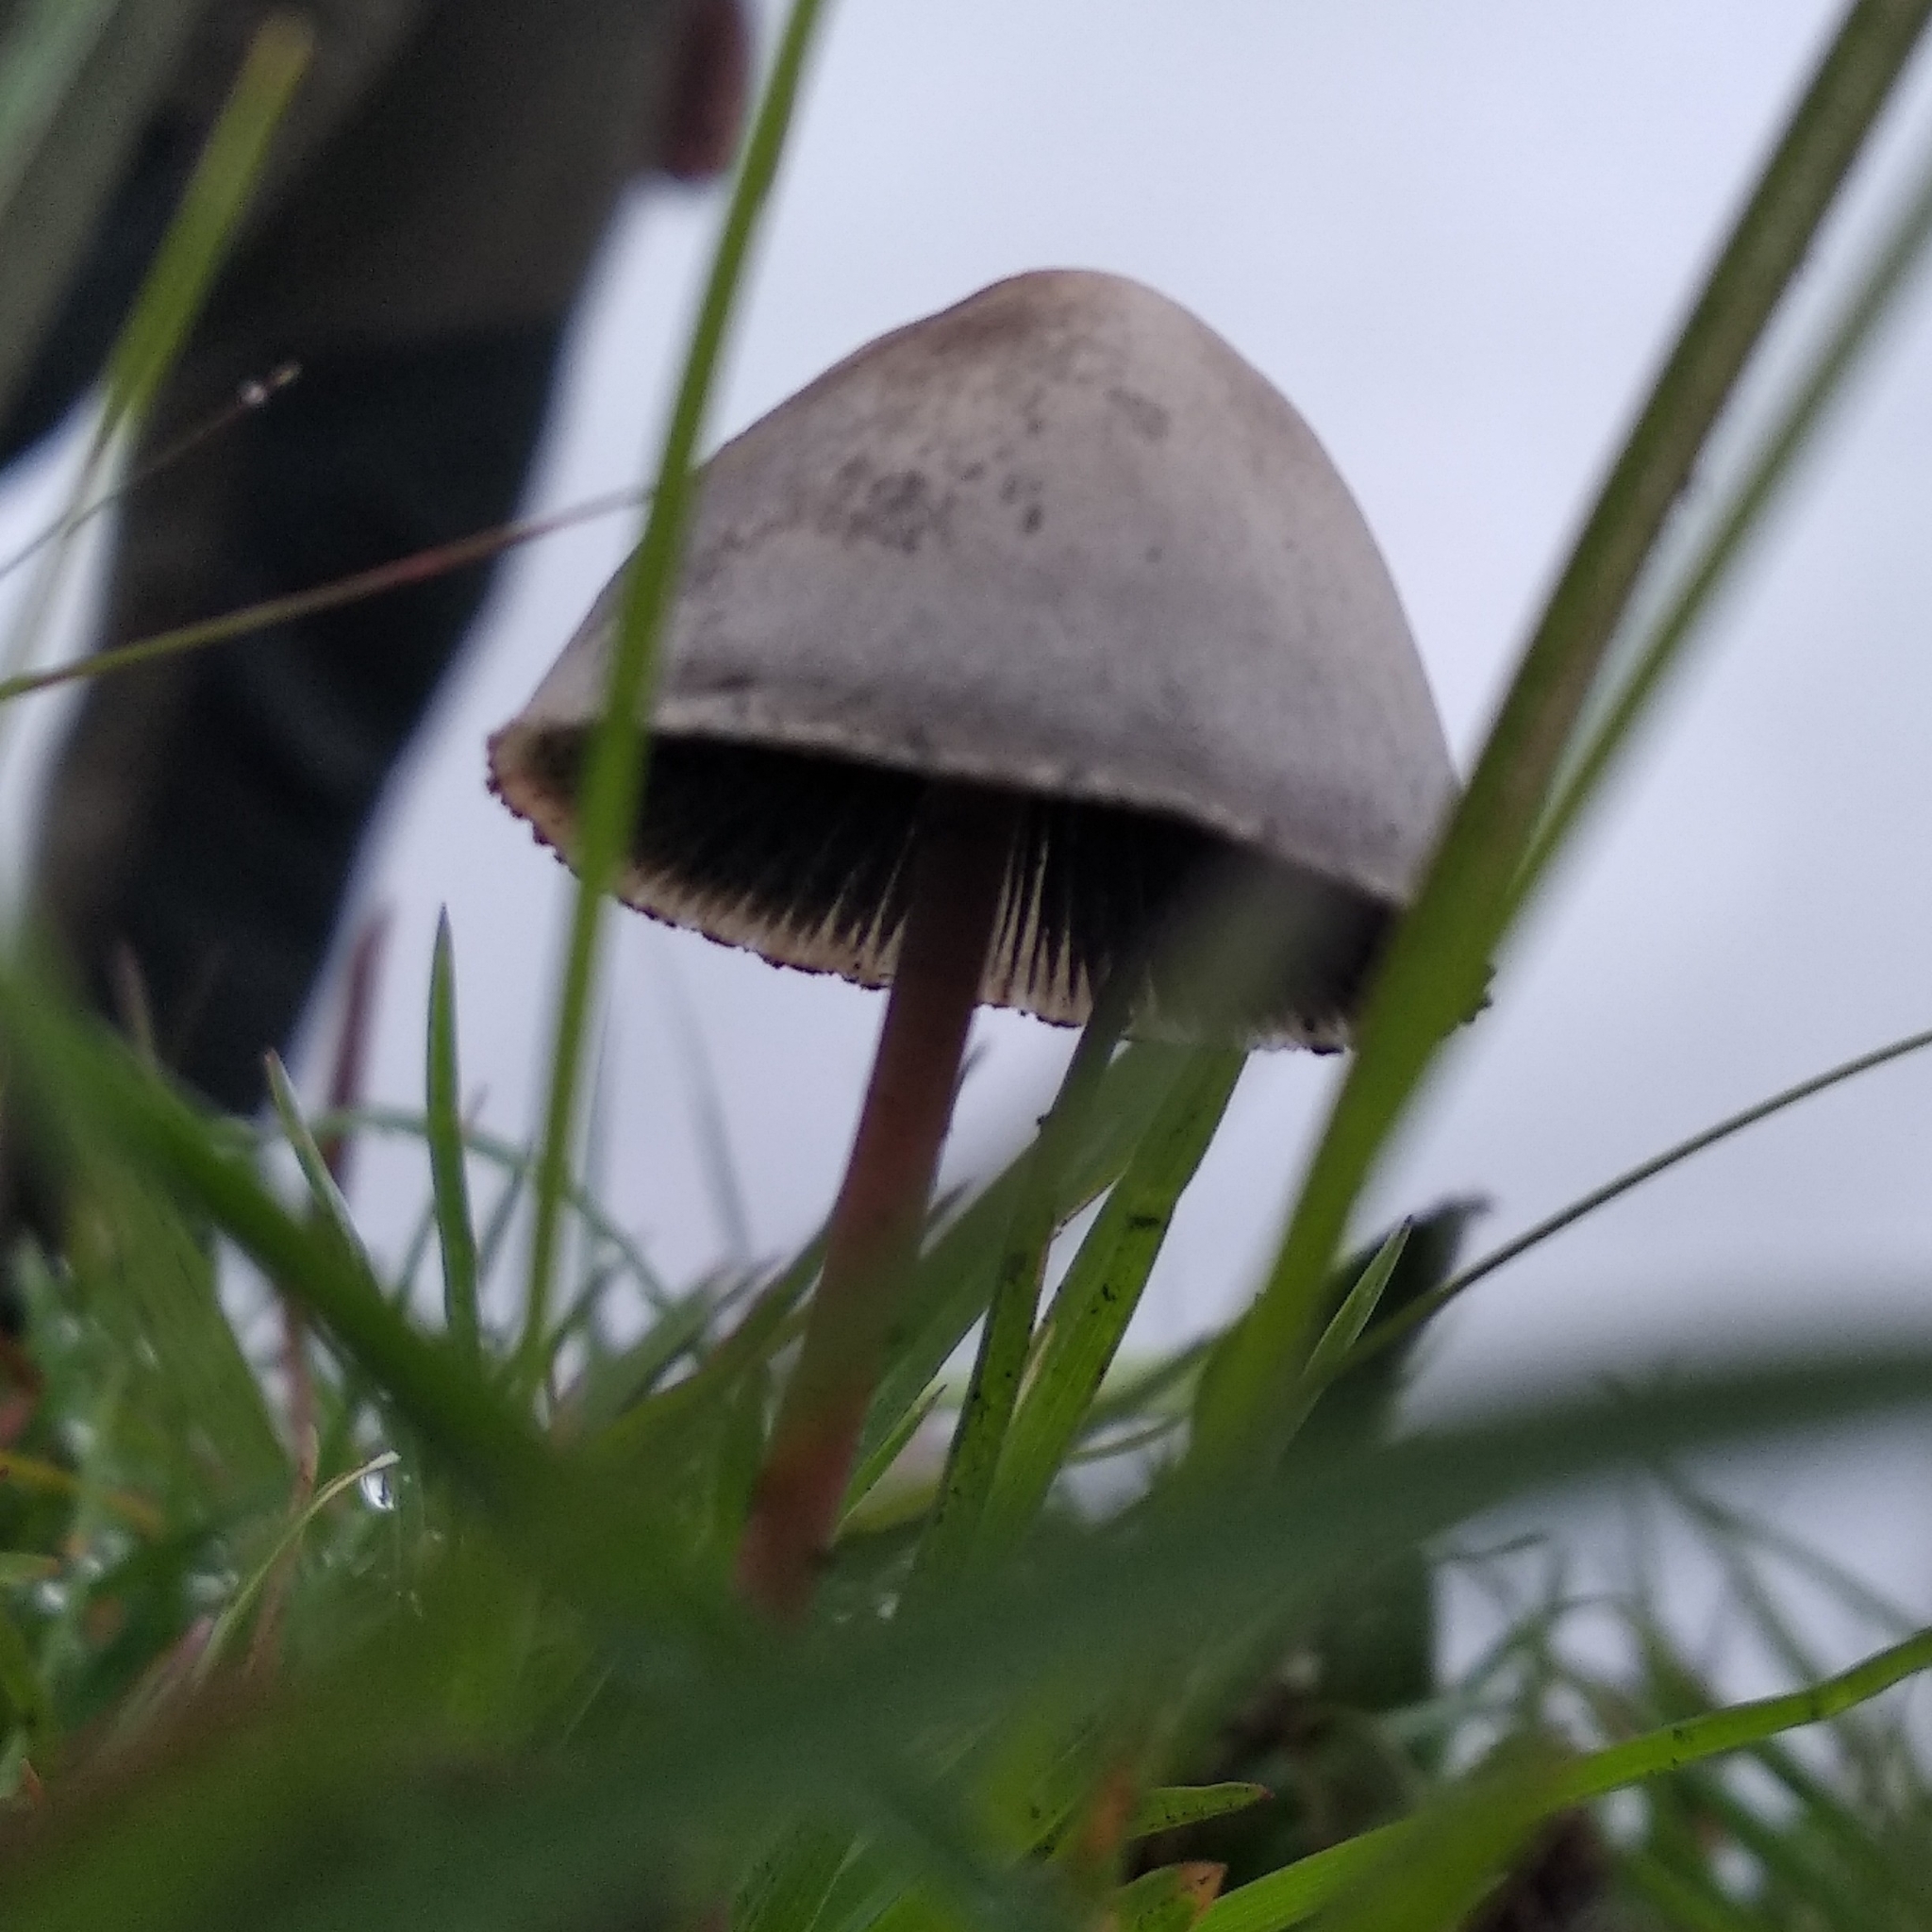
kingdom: Fungi
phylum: Basidiomycota
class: Agaricomycetes
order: Agaricales
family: Bolbitiaceae
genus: Panaeolus
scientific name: Panaeolus papilionaceus
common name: Petticoat mottlegill
